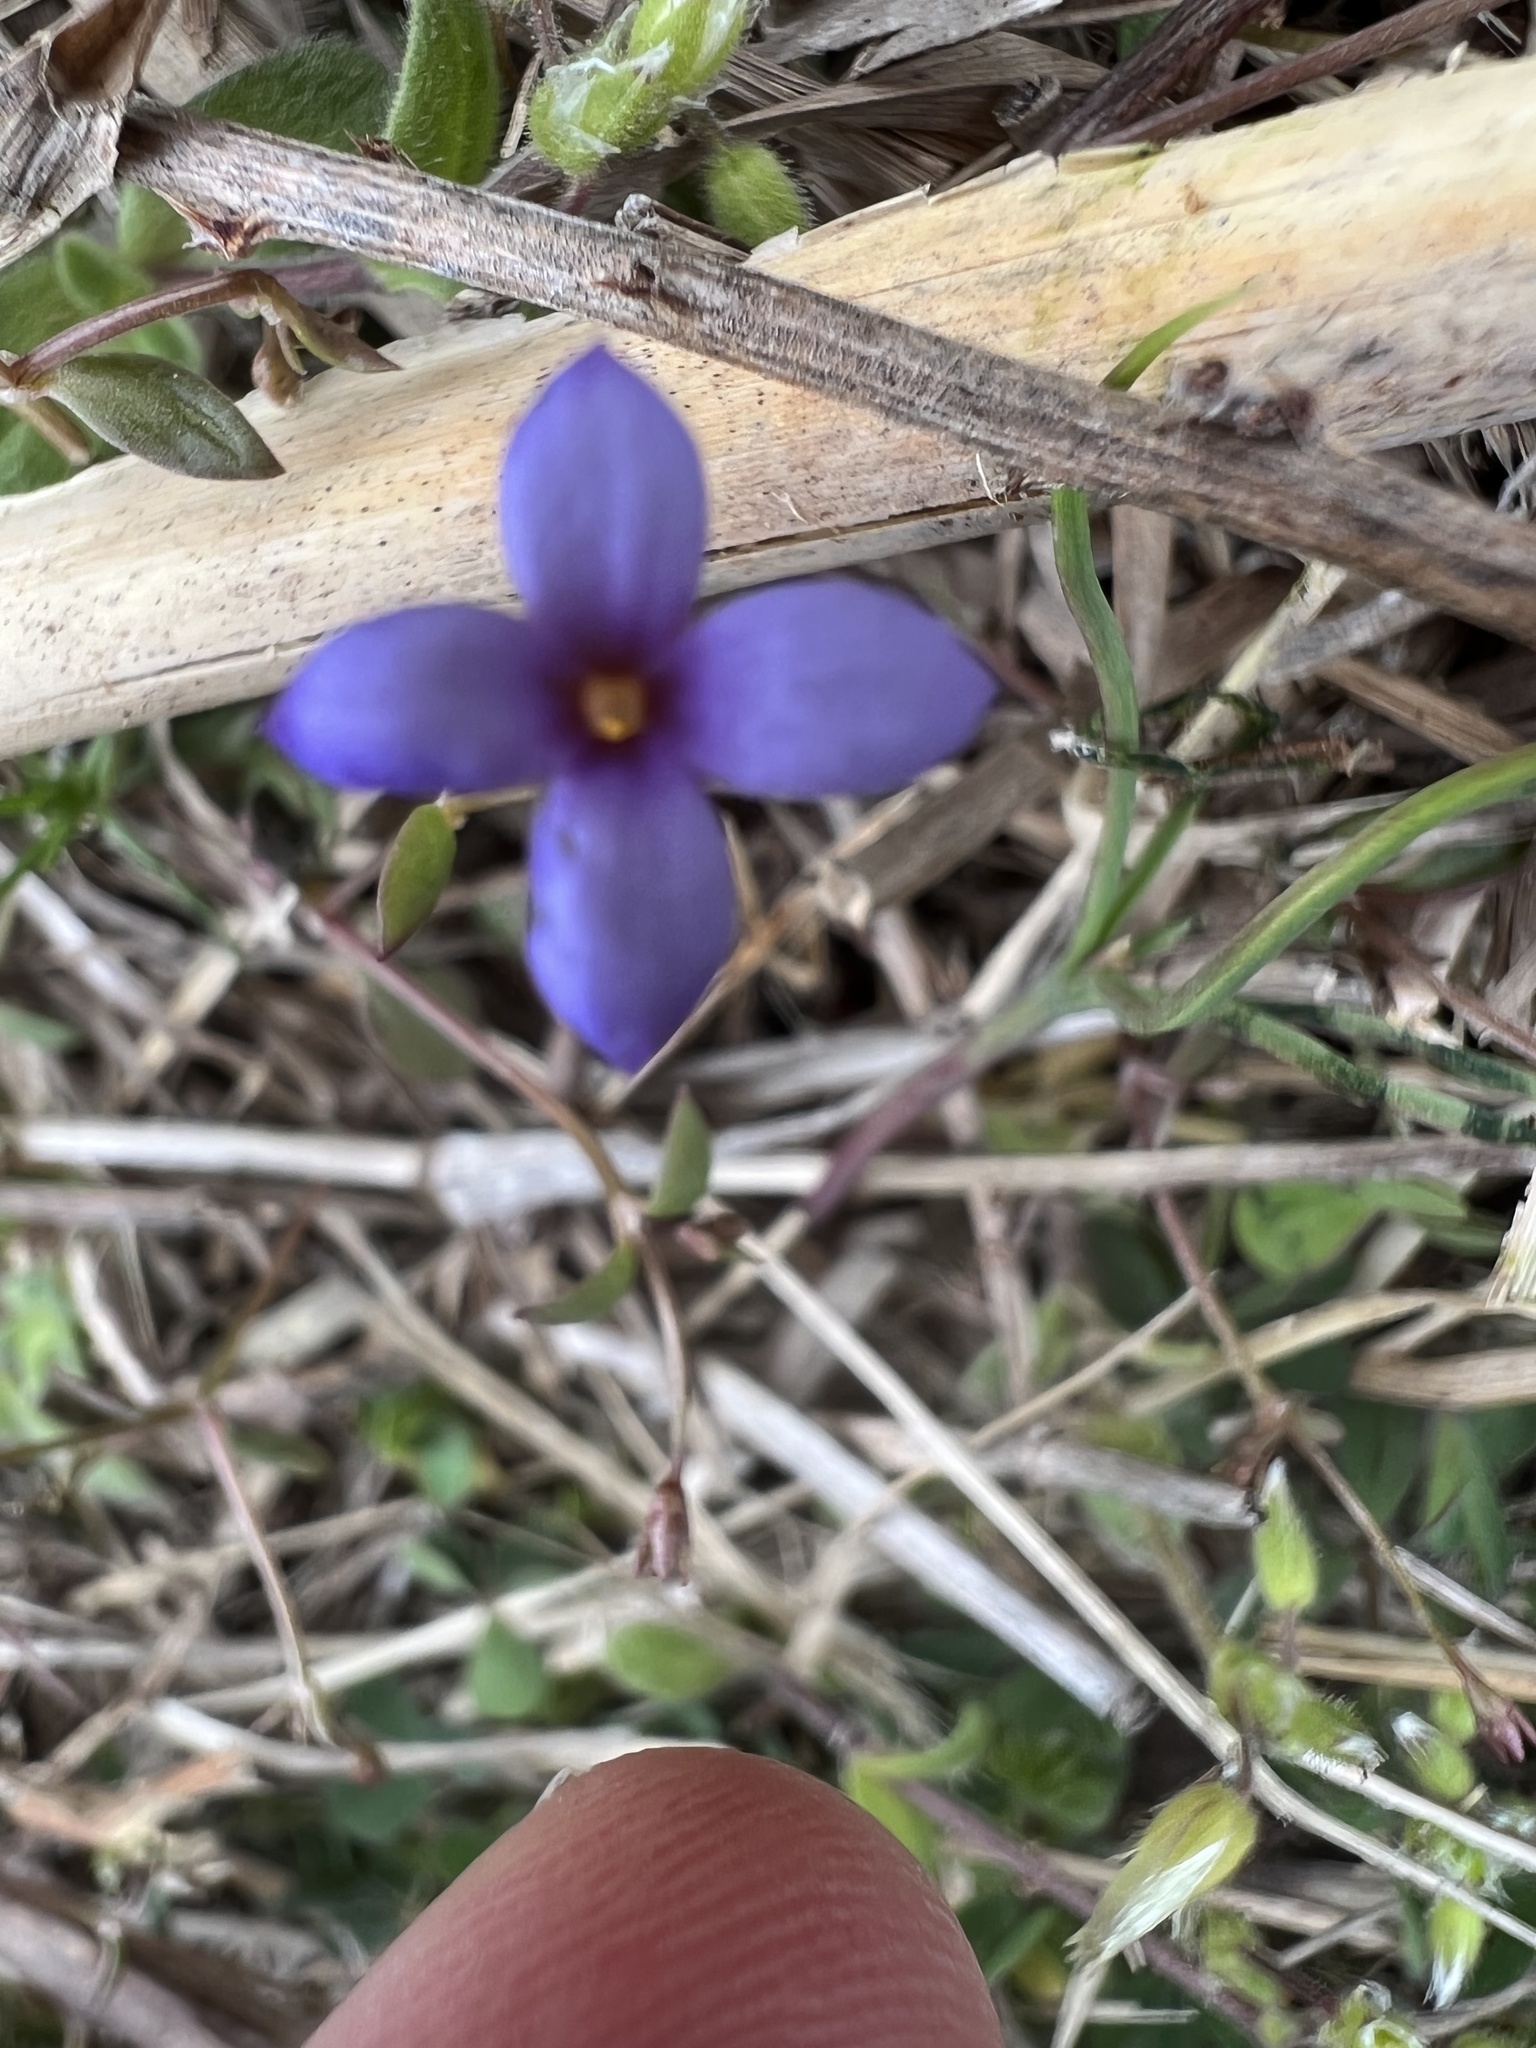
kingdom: Plantae
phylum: Tracheophyta
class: Magnoliopsida
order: Gentianales
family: Rubiaceae
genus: Houstonia
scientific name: Houstonia pusilla
